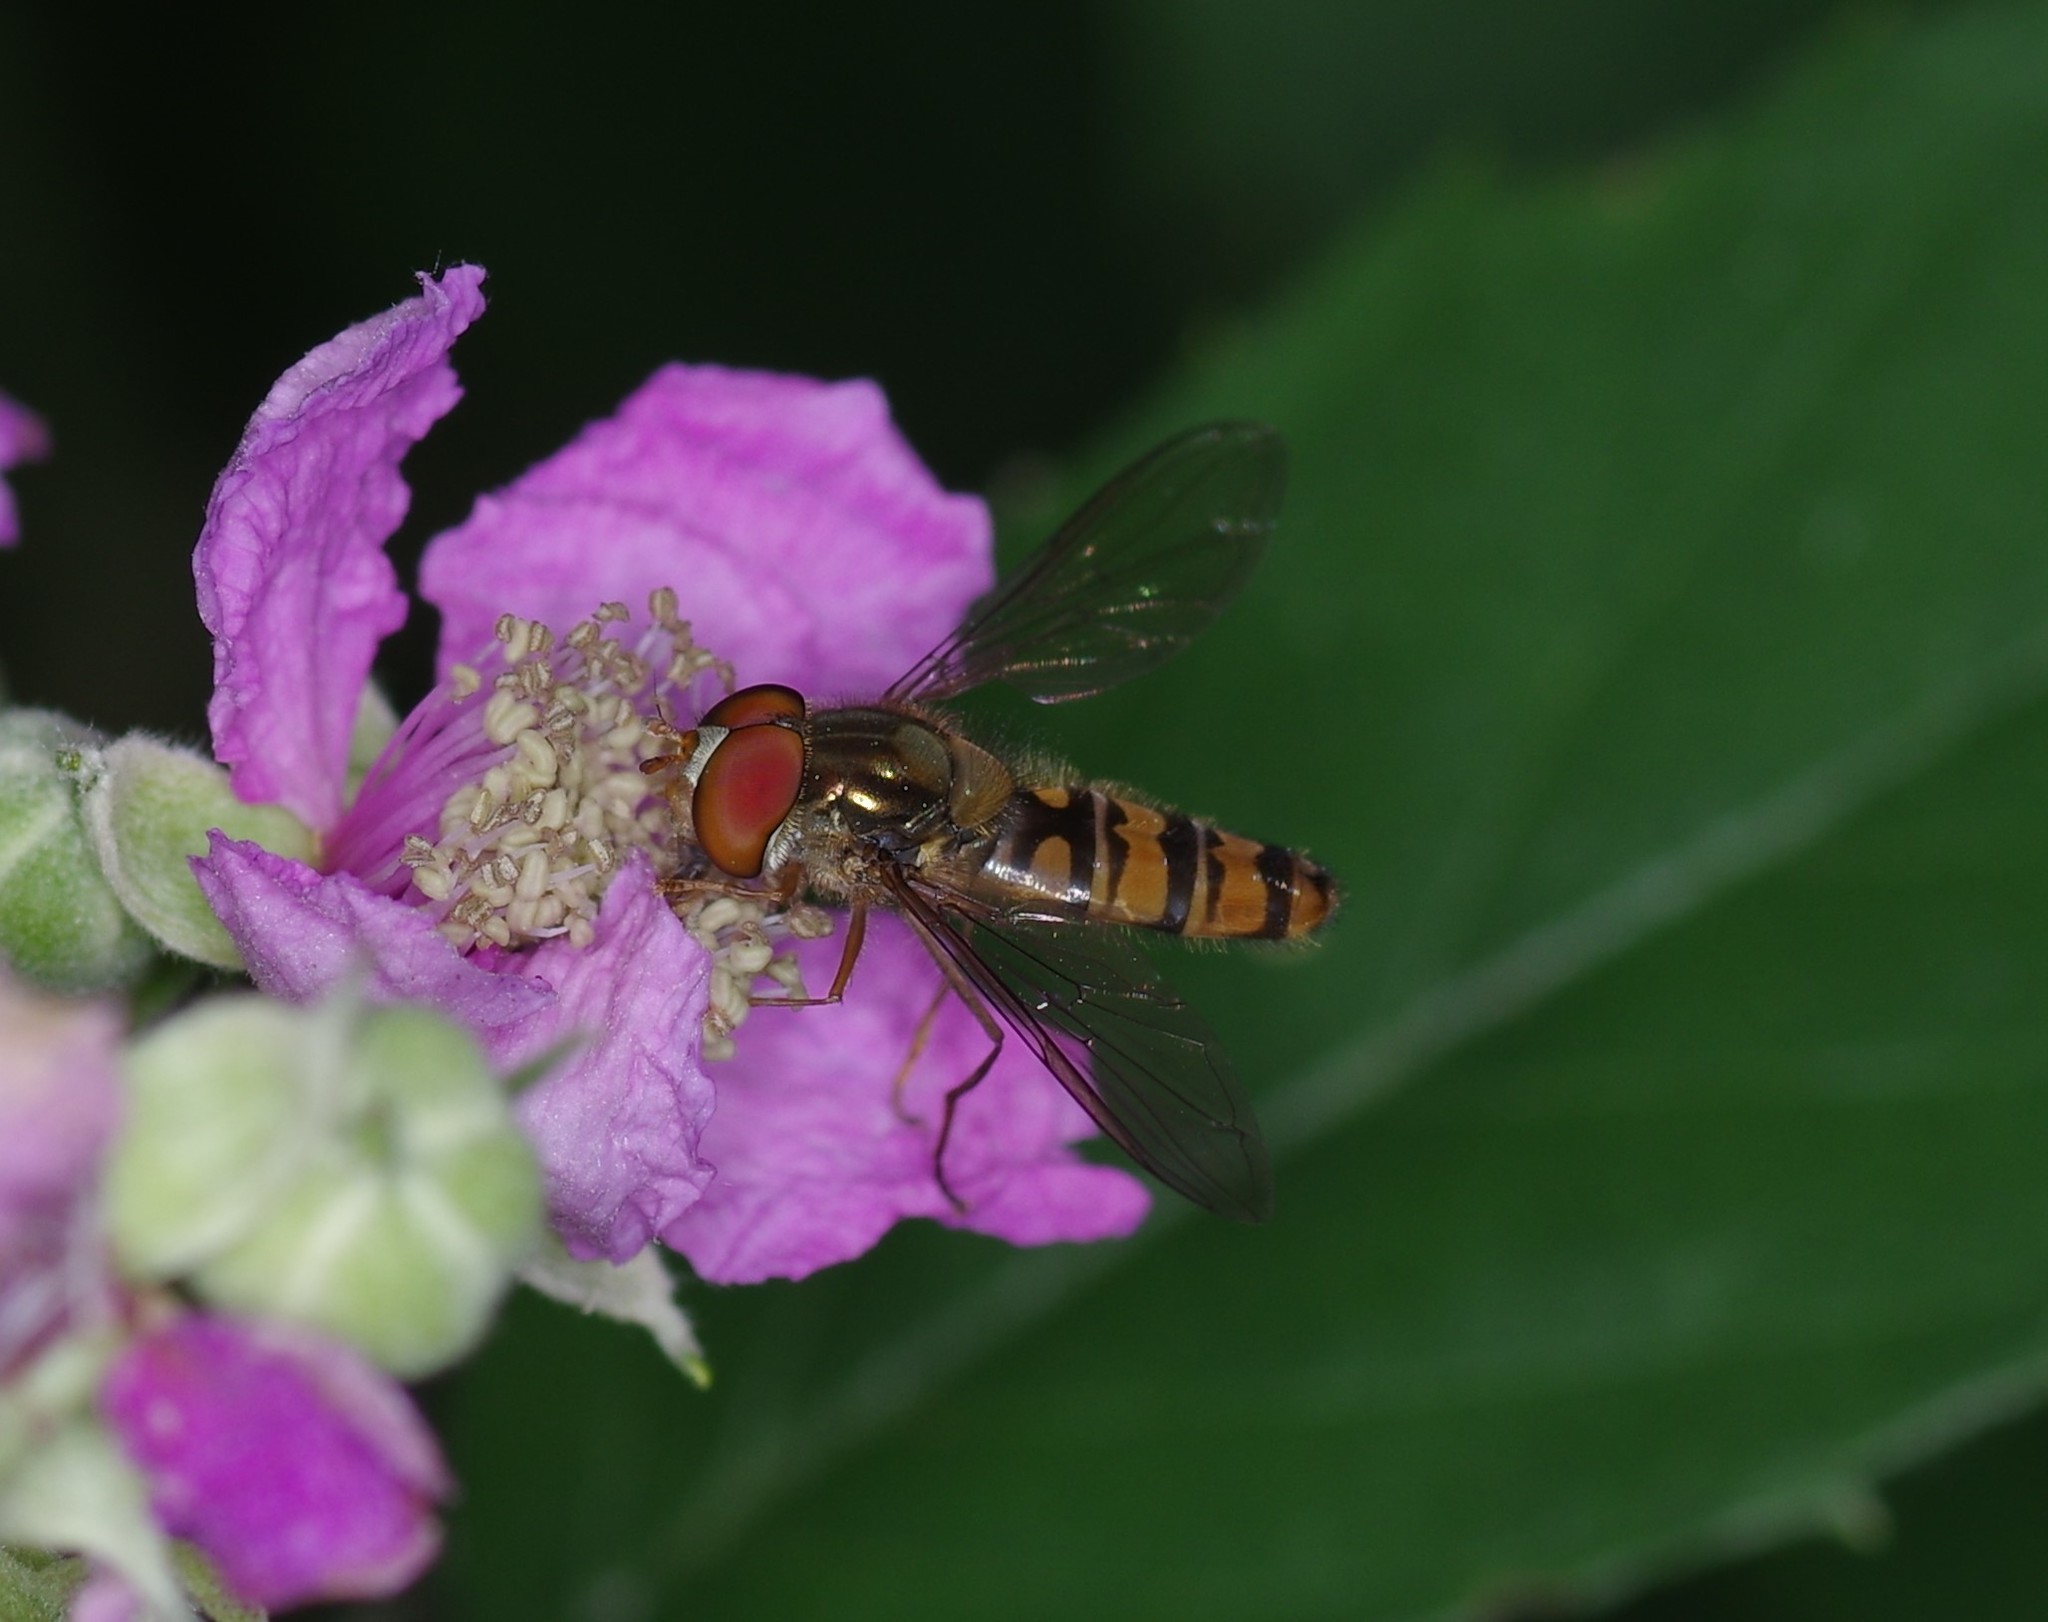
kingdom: Animalia
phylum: Arthropoda
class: Insecta
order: Diptera
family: Syrphidae
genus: Episyrphus
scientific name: Episyrphus balteatus
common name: Marmalade hoverfly
